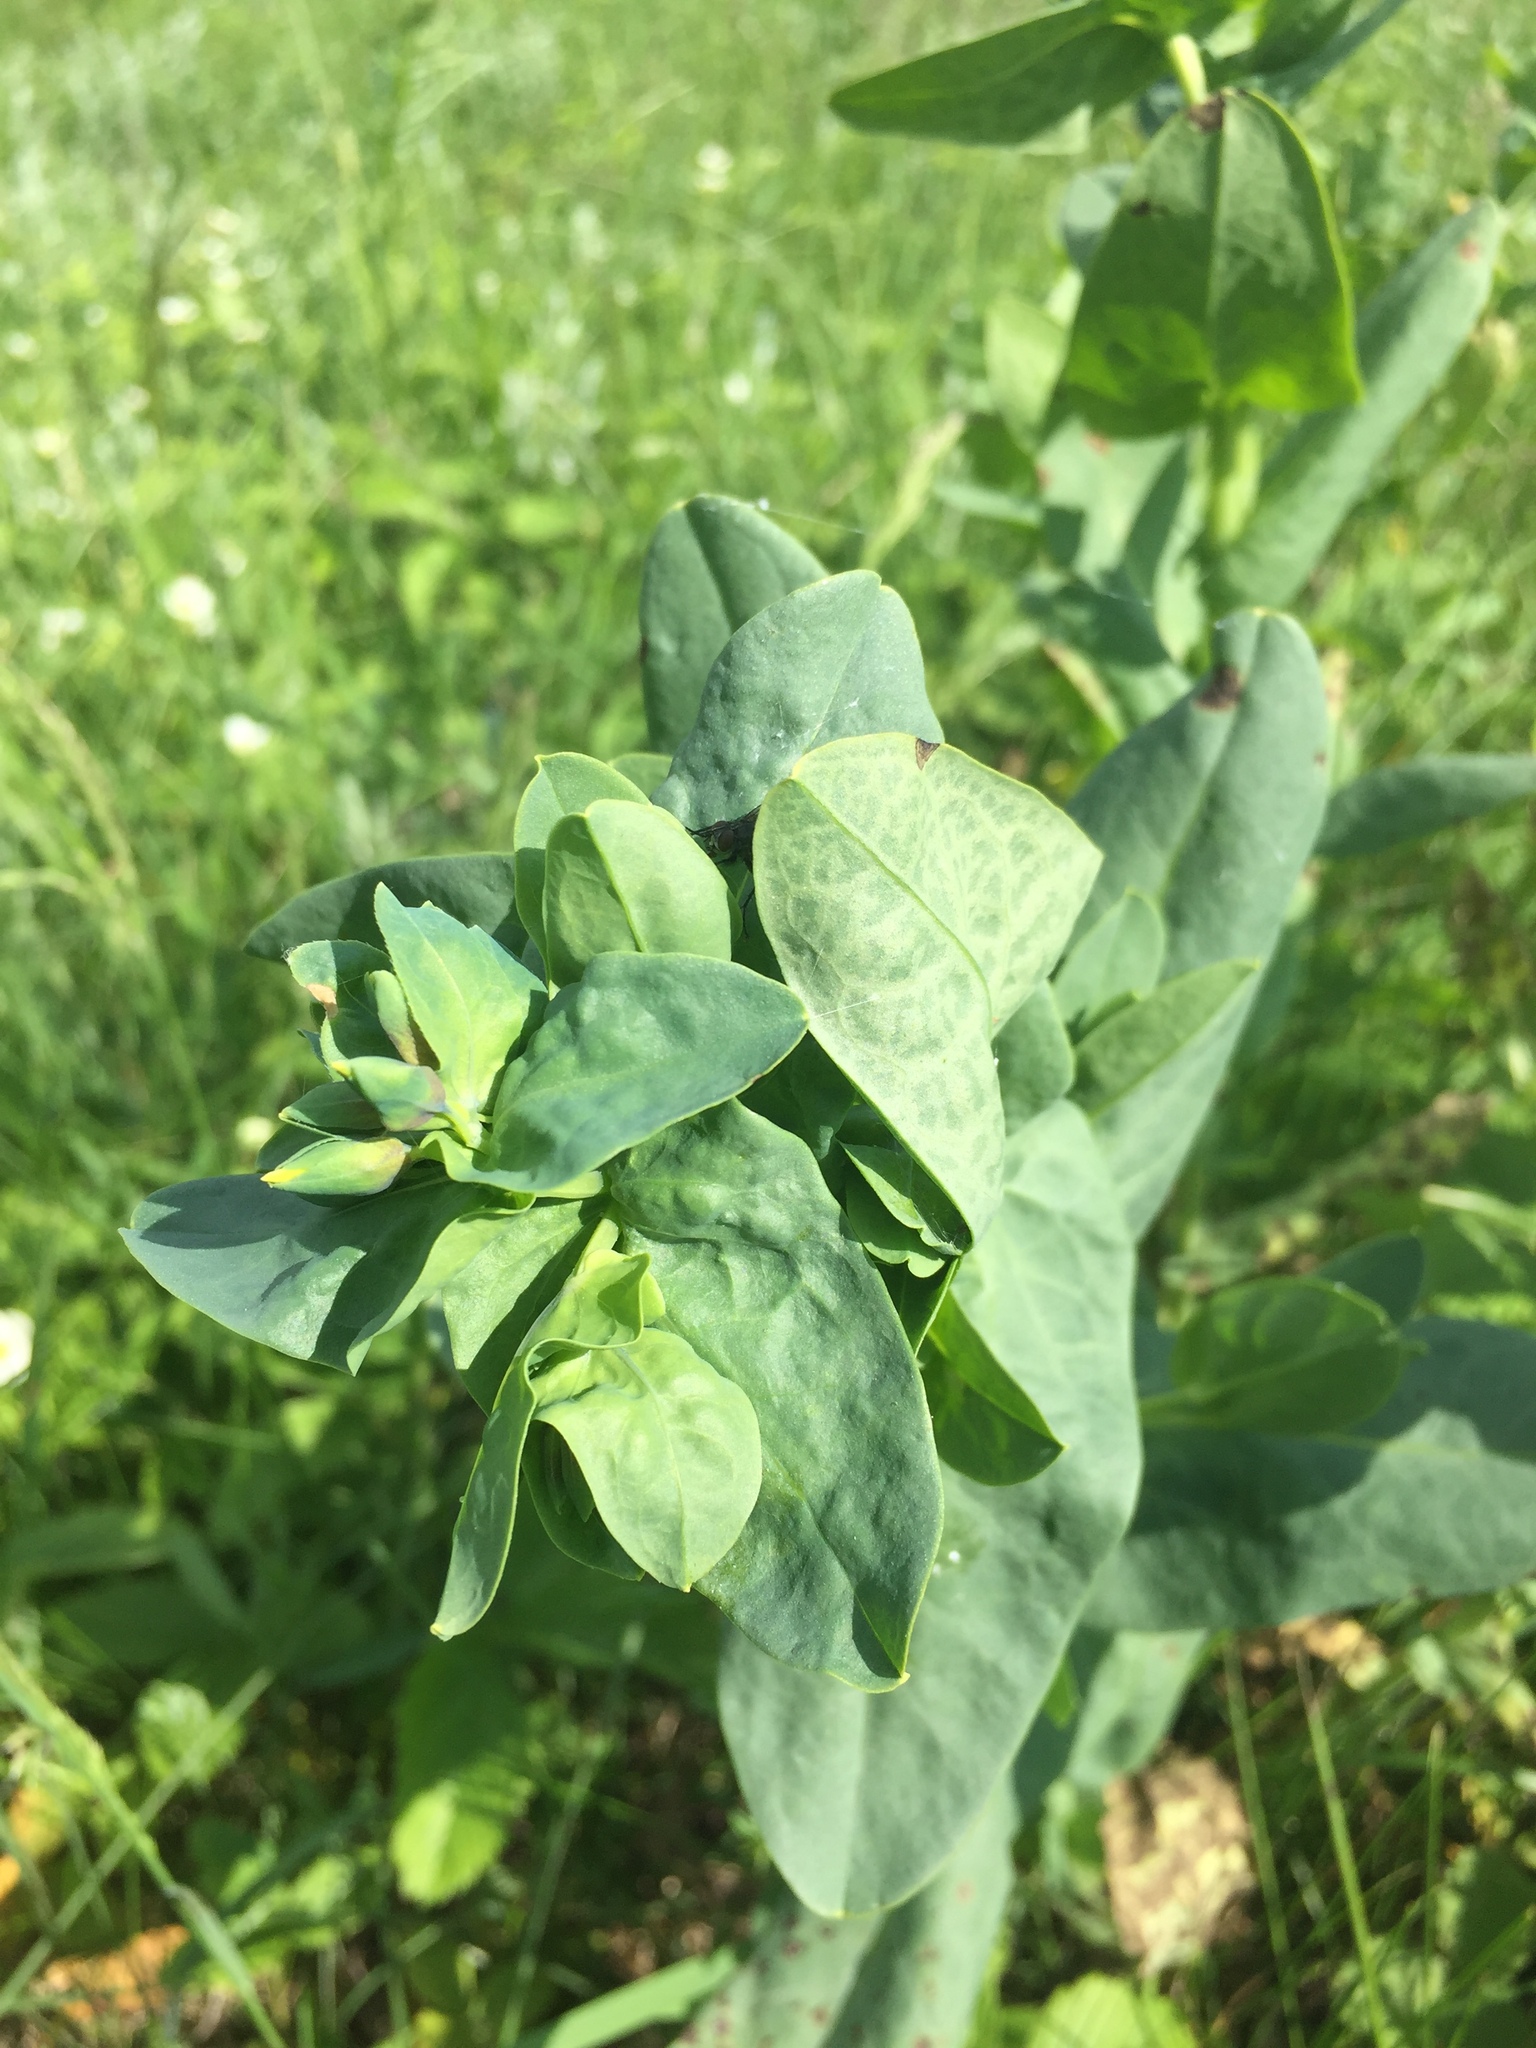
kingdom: Plantae
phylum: Tracheophyta
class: Magnoliopsida
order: Boraginales
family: Boraginaceae
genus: Cerinthe
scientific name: Cerinthe minor
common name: Lesser honeywort
